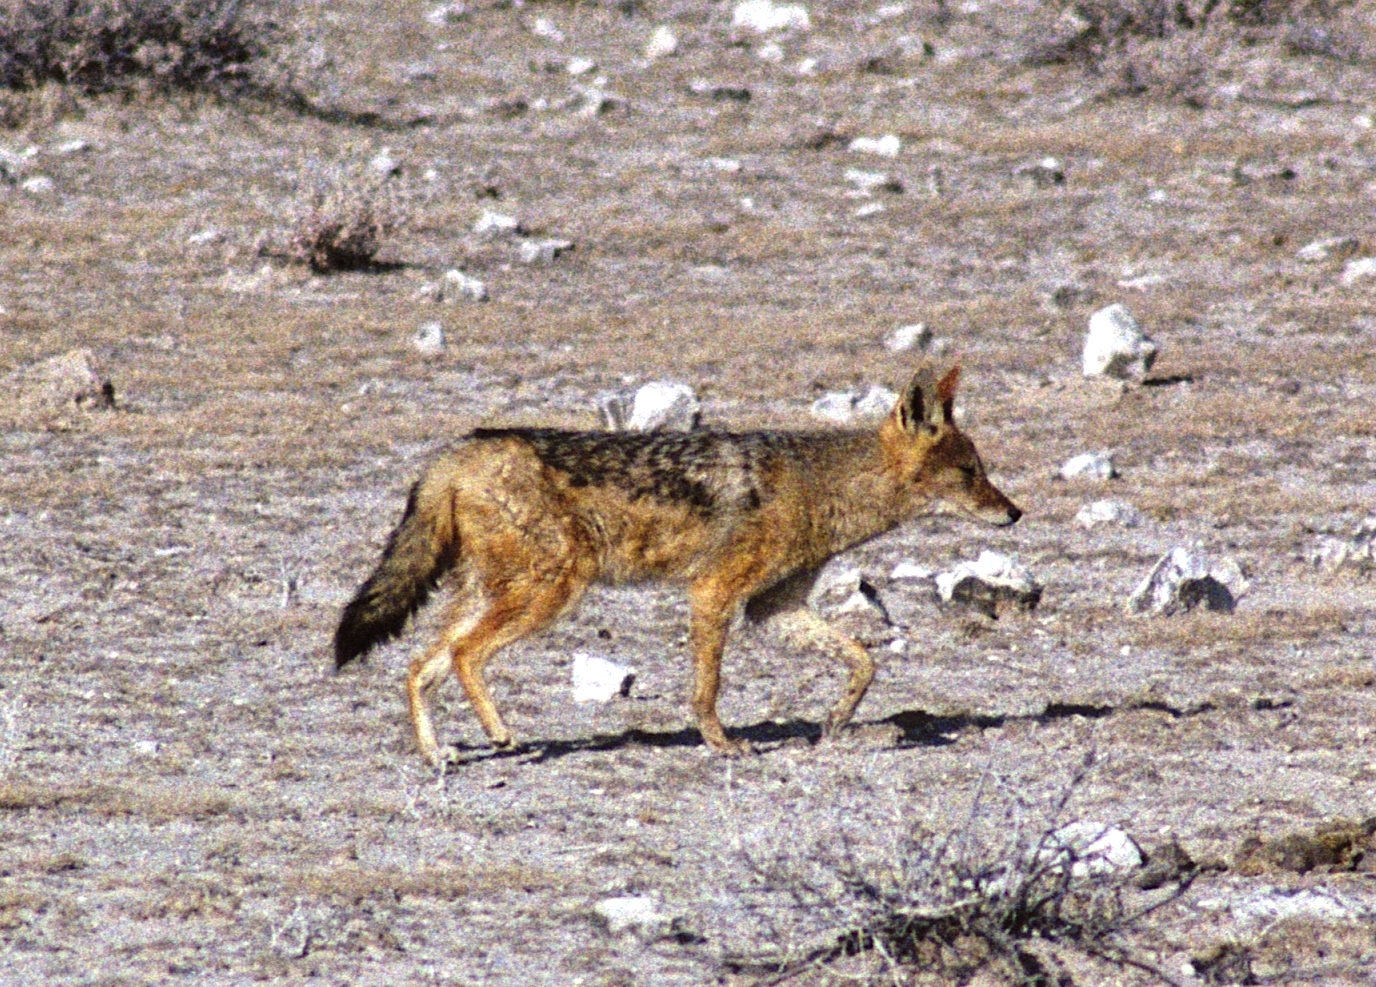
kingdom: Animalia
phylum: Chordata
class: Mammalia
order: Carnivora
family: Canidae
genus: Lupulella
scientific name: Lupulella
